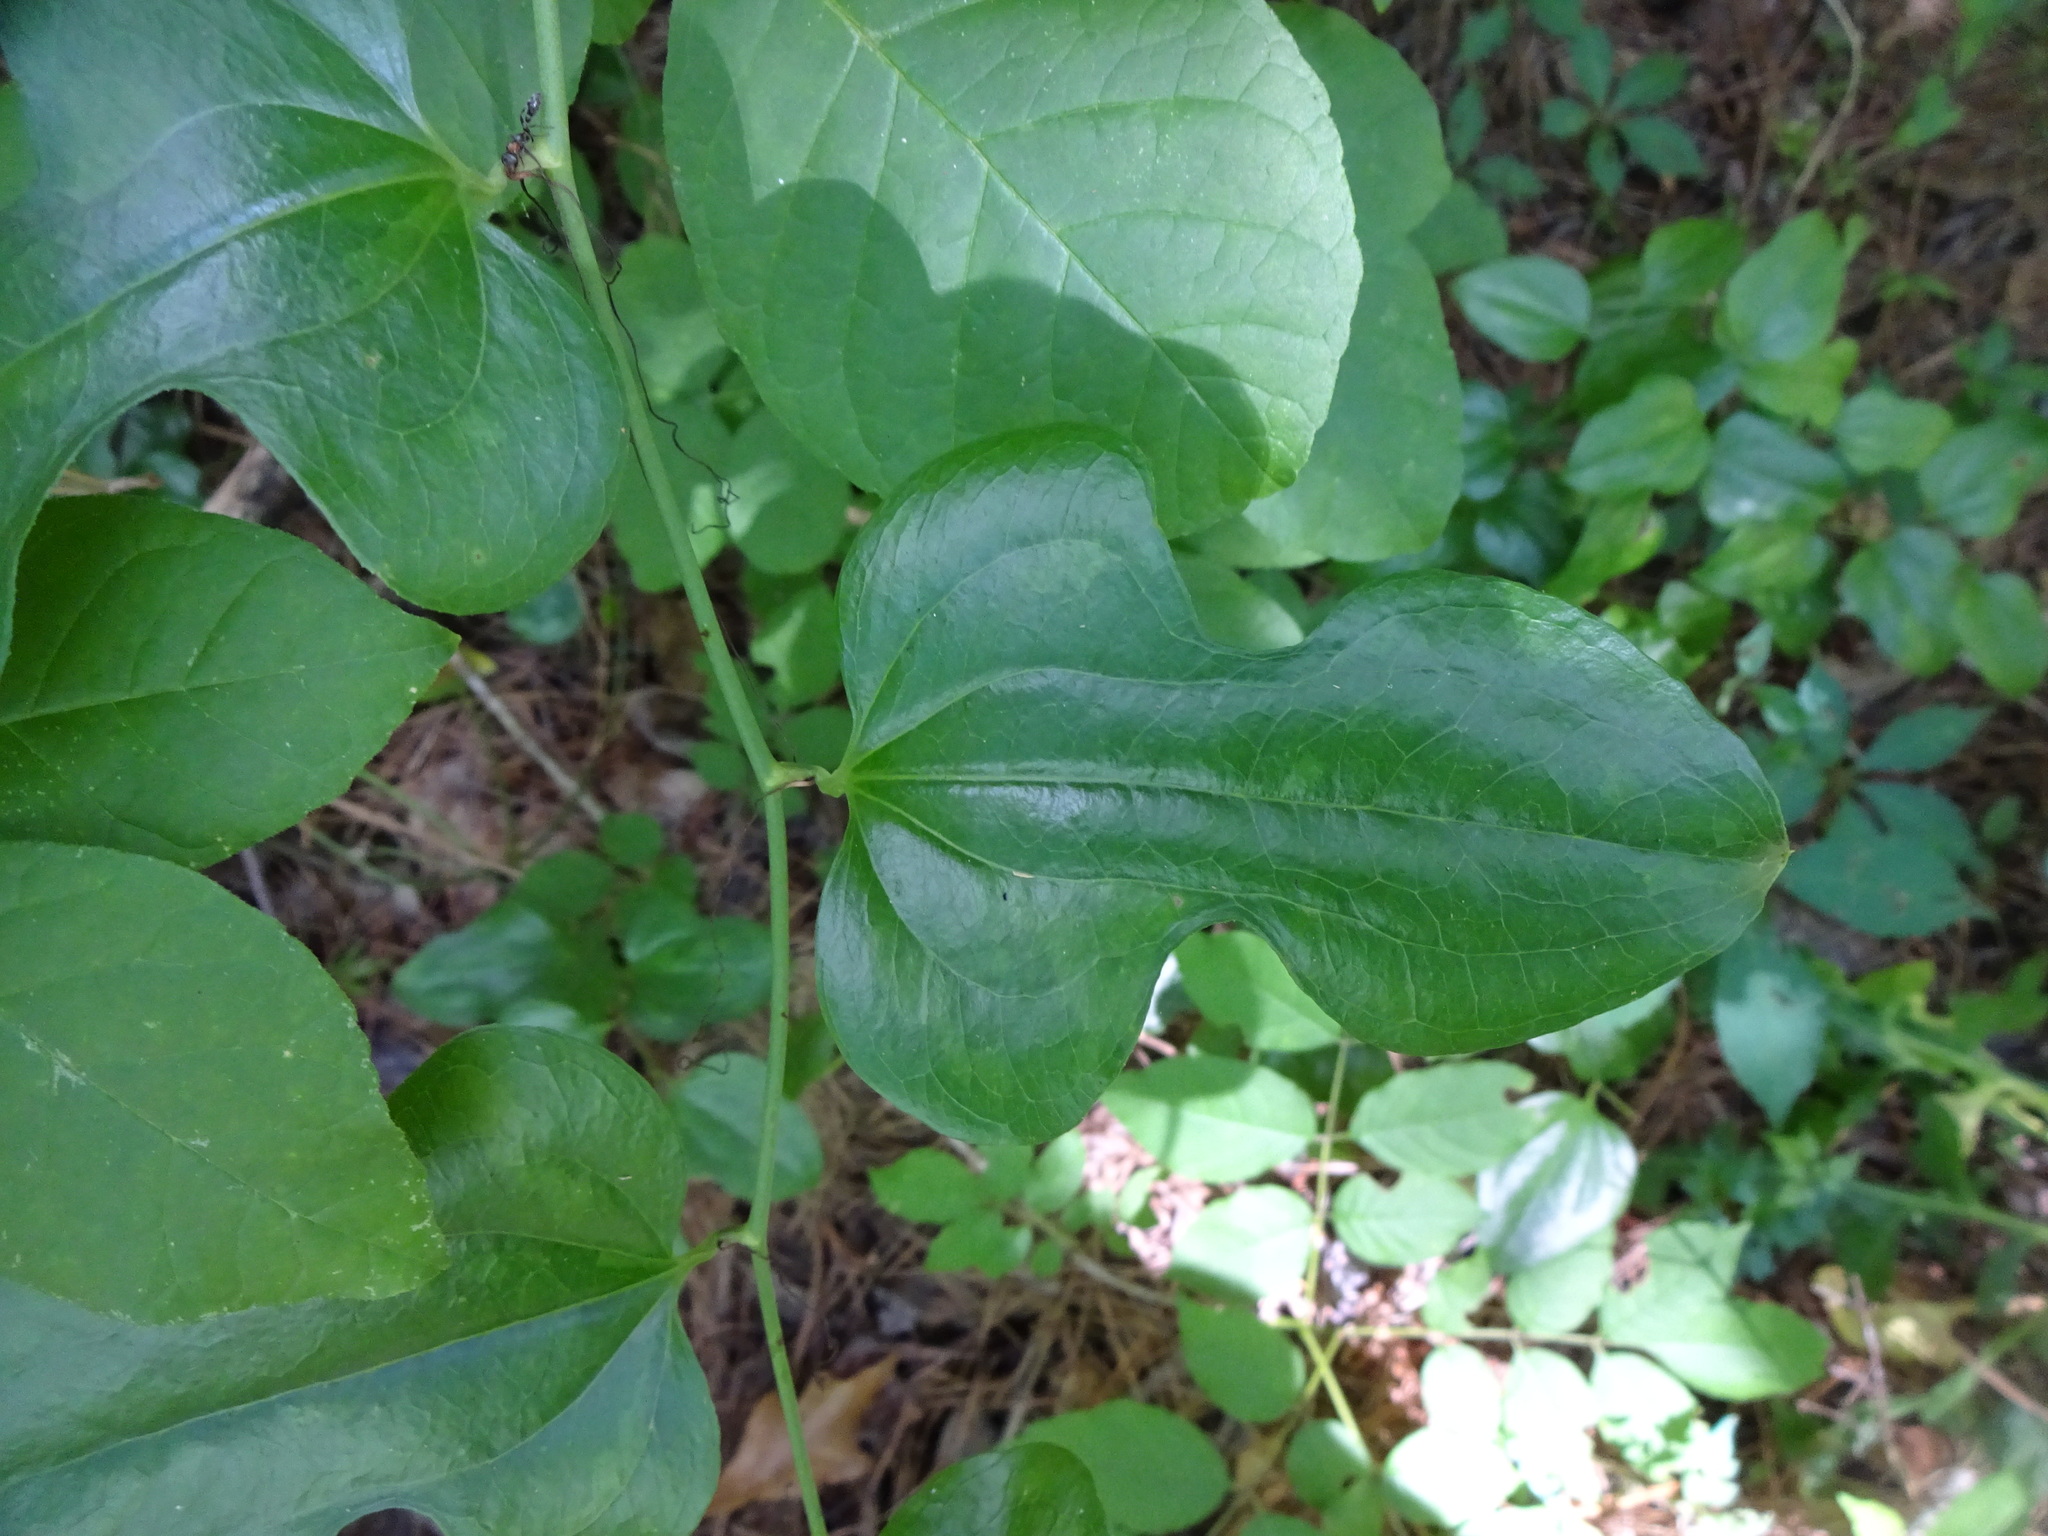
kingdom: Plantae
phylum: Tracheophyta
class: Liliopsida
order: Liliales
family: Smilacaceae
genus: Smilax
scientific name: Smilax tamnoides
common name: Hellfetter
